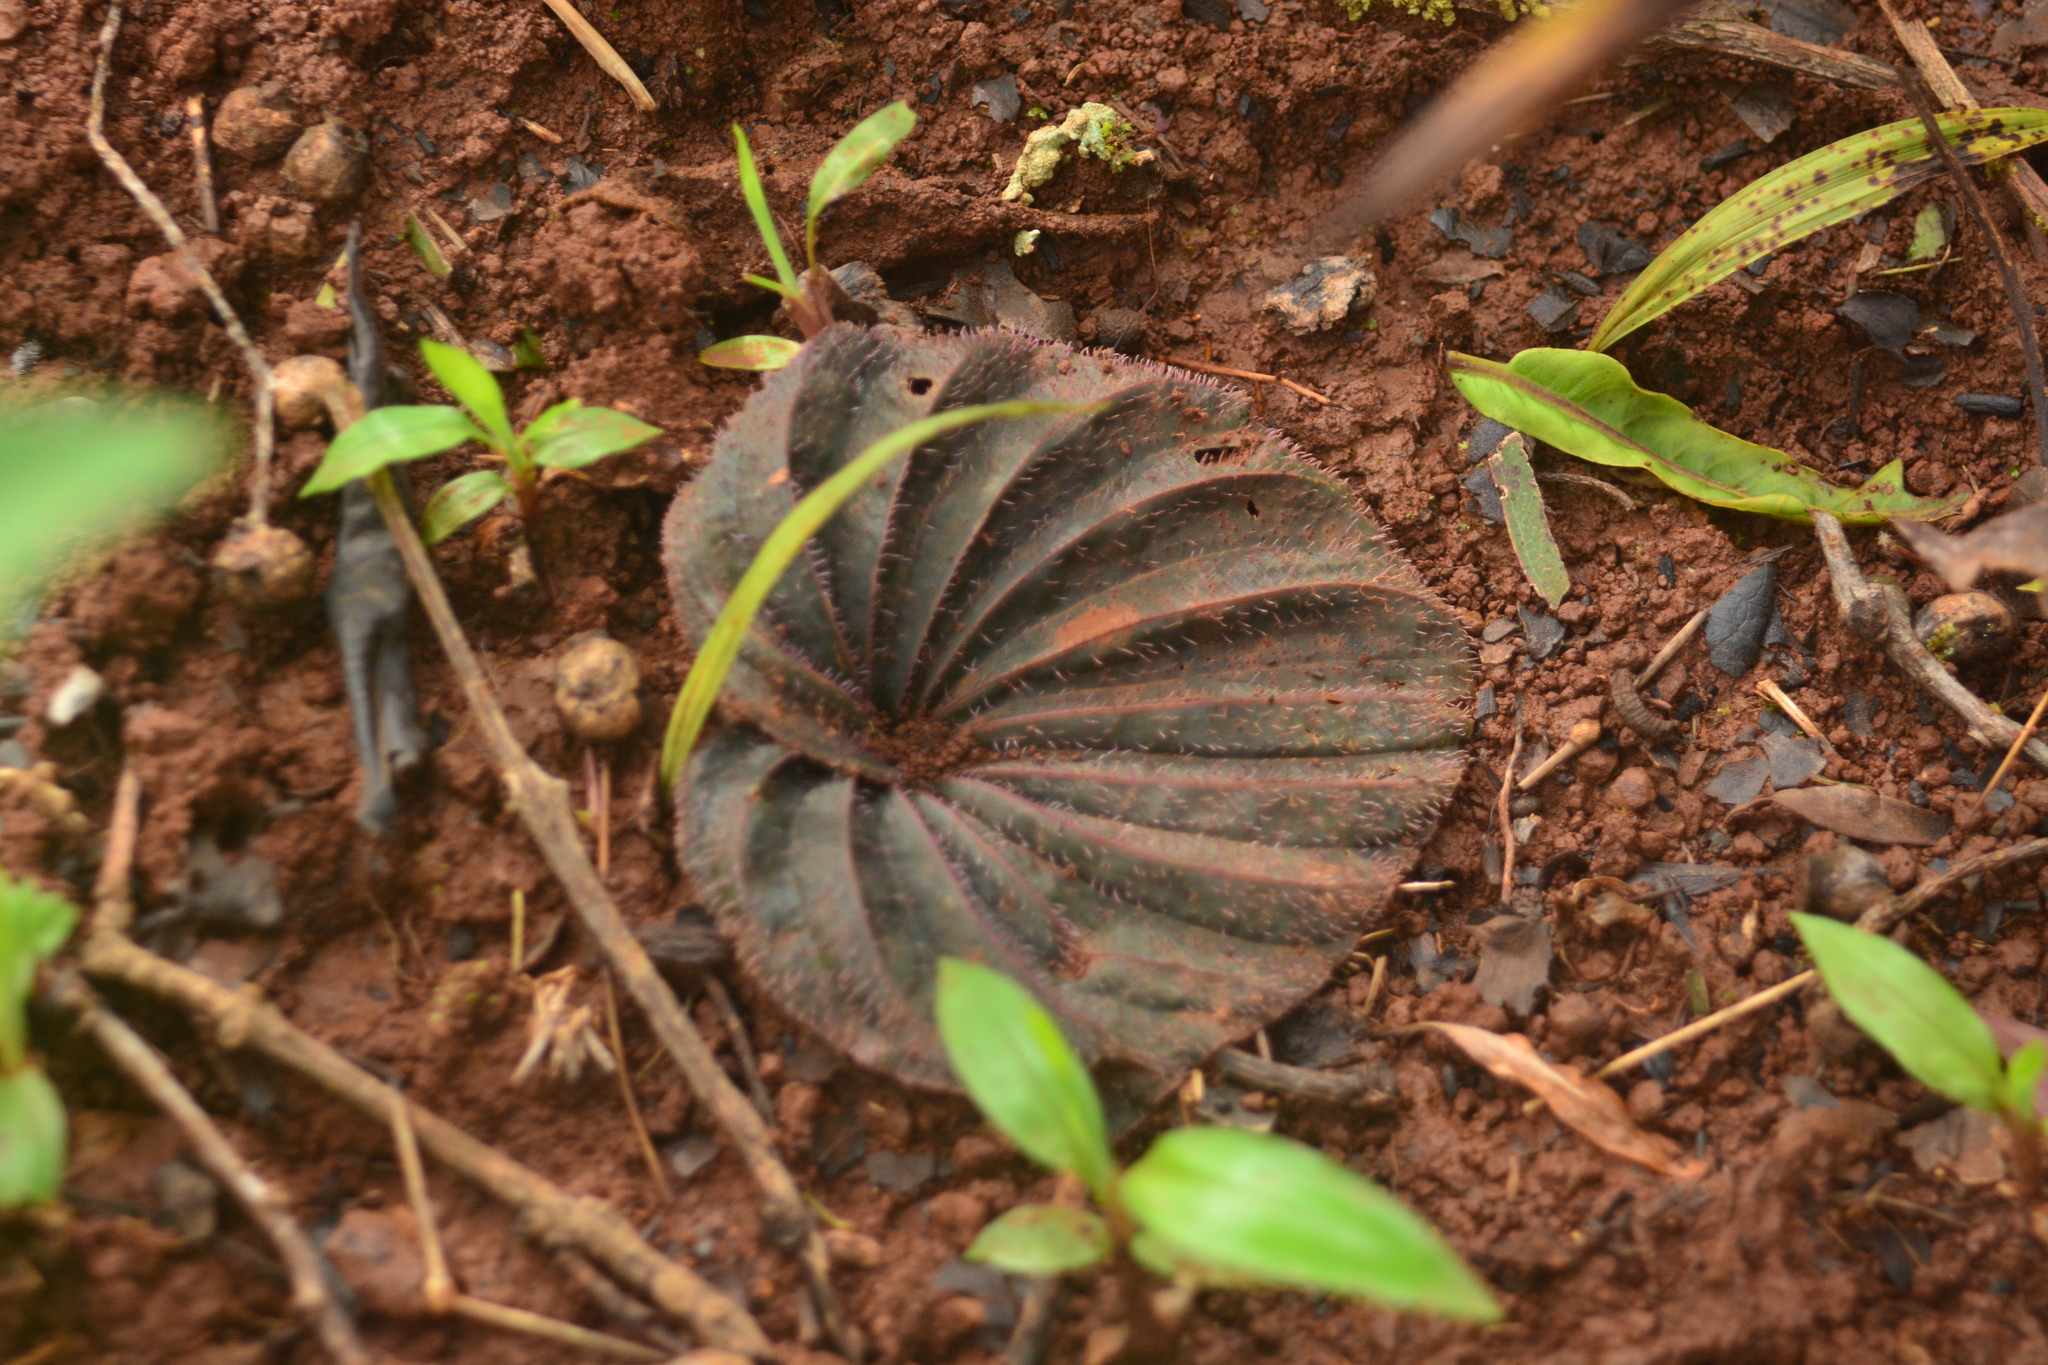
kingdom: Plantae
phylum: Tracheophyta
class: Liliopsida
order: Asparagales
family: Orchidaceae
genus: Nervilia
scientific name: Nervilia plicata
